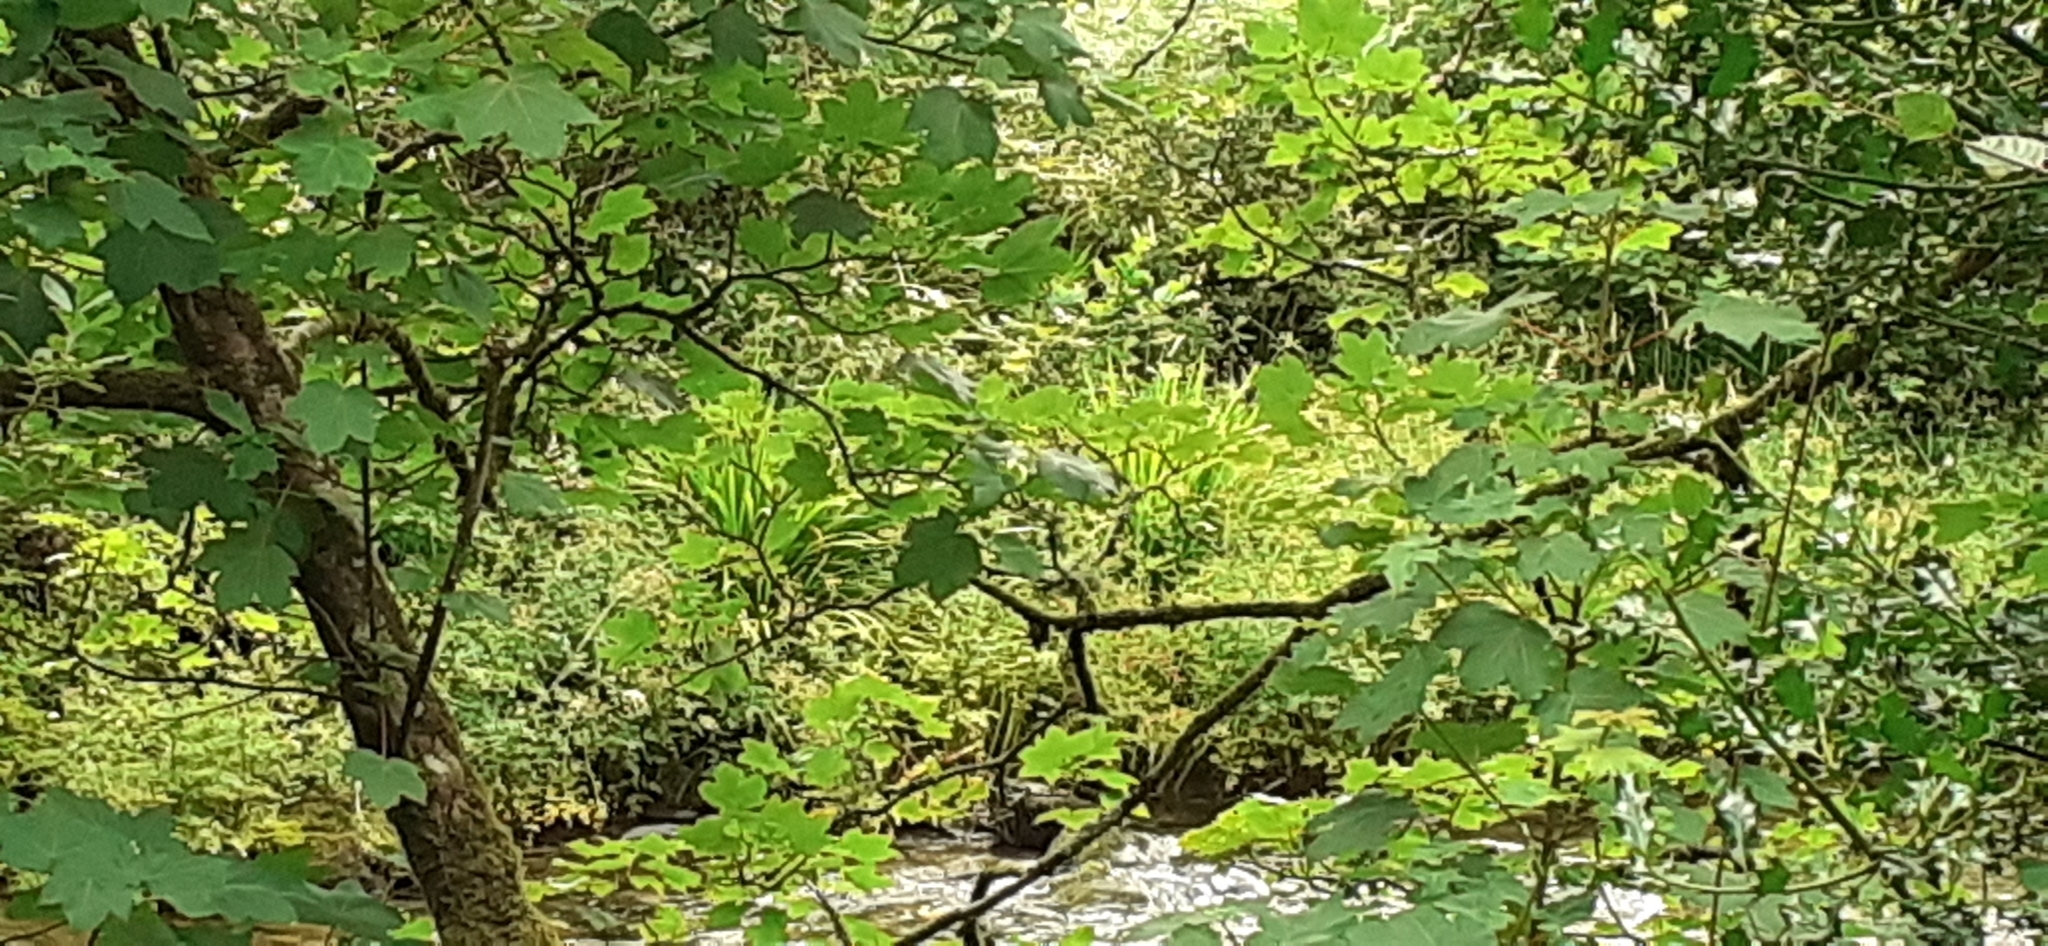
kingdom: Plantae
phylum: Tracheophyta
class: Magnoliopsida
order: Sapindales
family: Sapindaceae
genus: Acer
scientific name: Acer pseudoplatanus
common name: Sycamore
